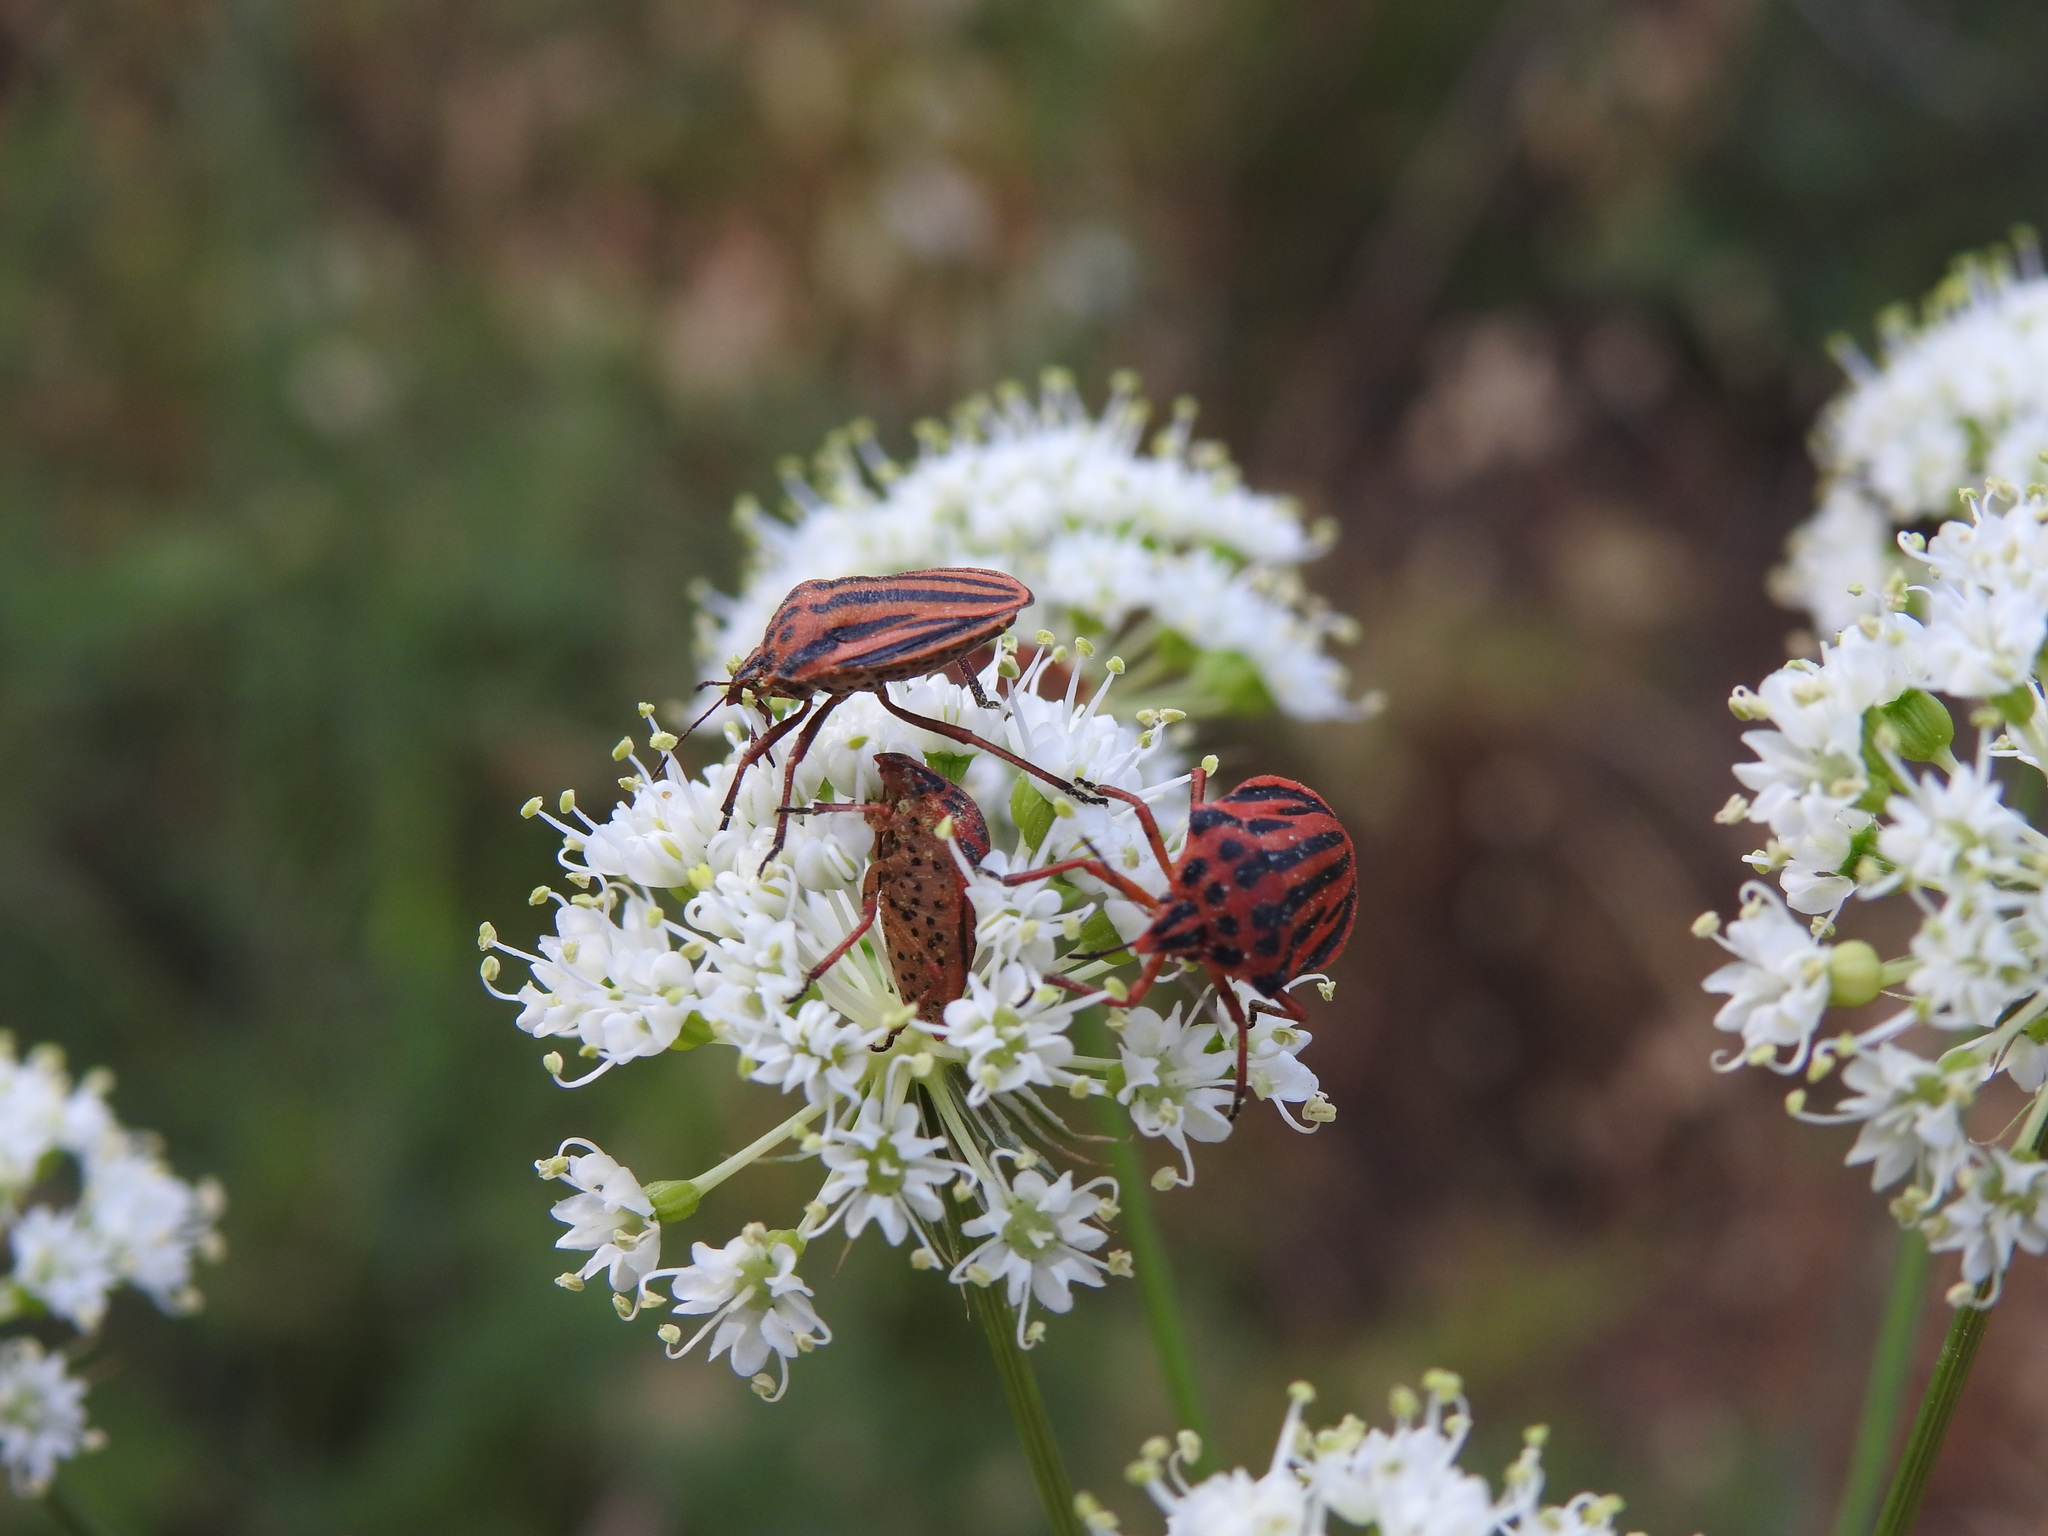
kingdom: Animalia
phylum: Arthropoda
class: Insecta
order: Hemiptera
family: Pentatomidae
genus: Graphosoma
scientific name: Graphosoma semipunctatum
